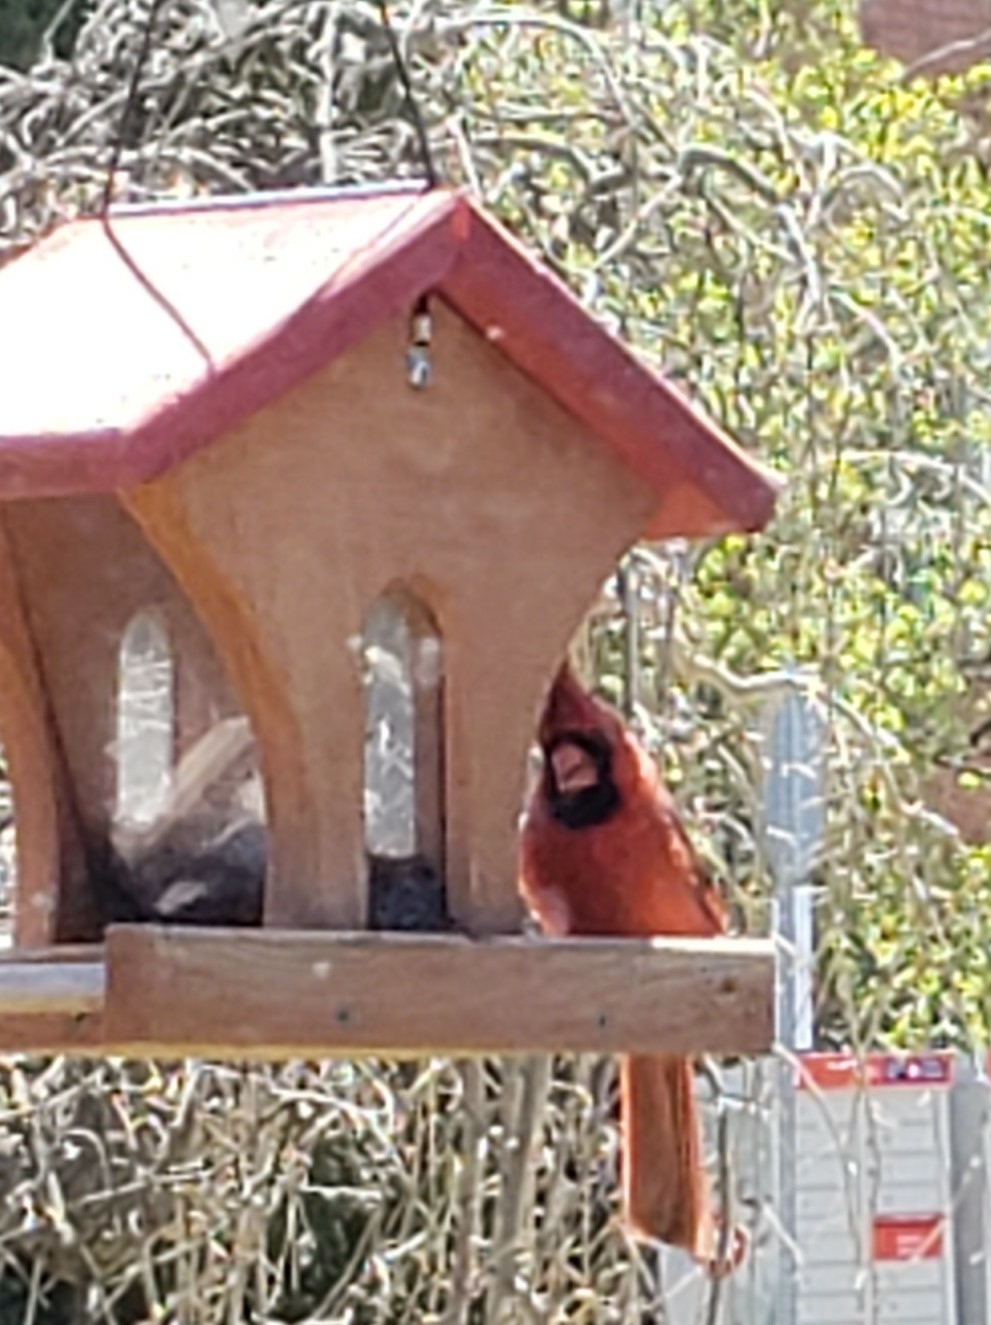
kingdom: Animalia
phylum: Chordata
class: Aves
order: Passeriformes
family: Cardinalidae
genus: Cardinalis
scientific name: Cardinalis cardinalis
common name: Northern cardinal
